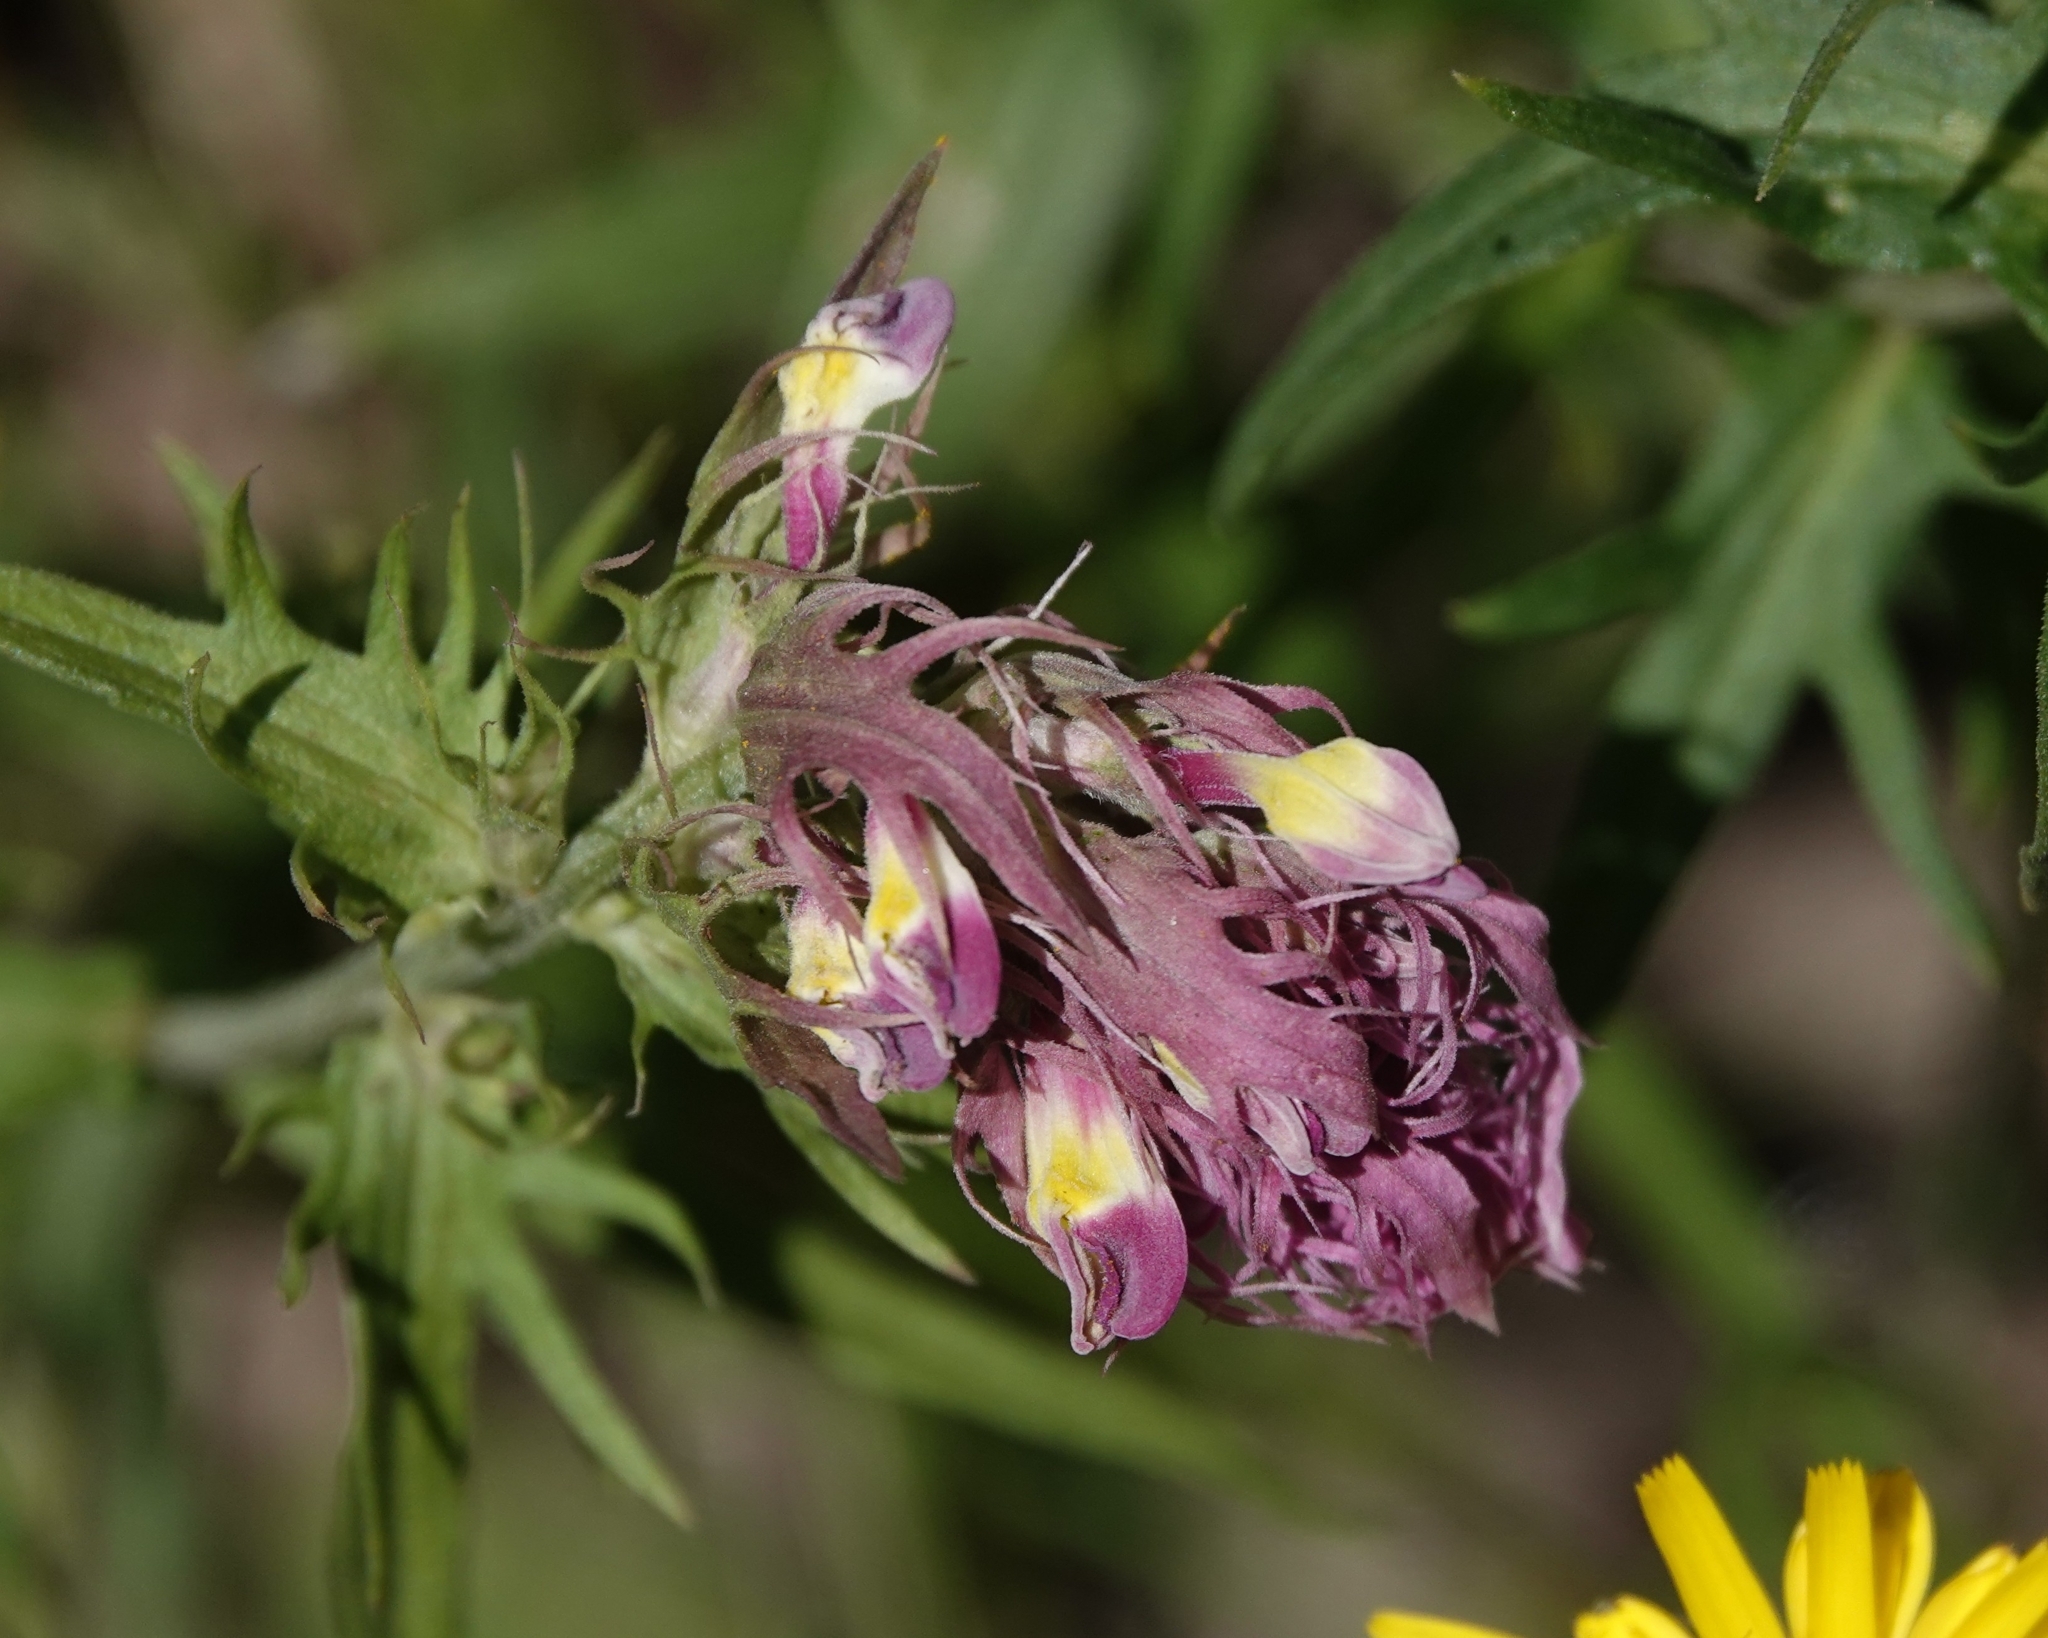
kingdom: Plantae
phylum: Tracheophyta
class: Magnoliopsida
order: Lamiales
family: Orobanchaceae
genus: Melampyrum
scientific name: Melampyrum arvense
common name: Field cow-wheat
